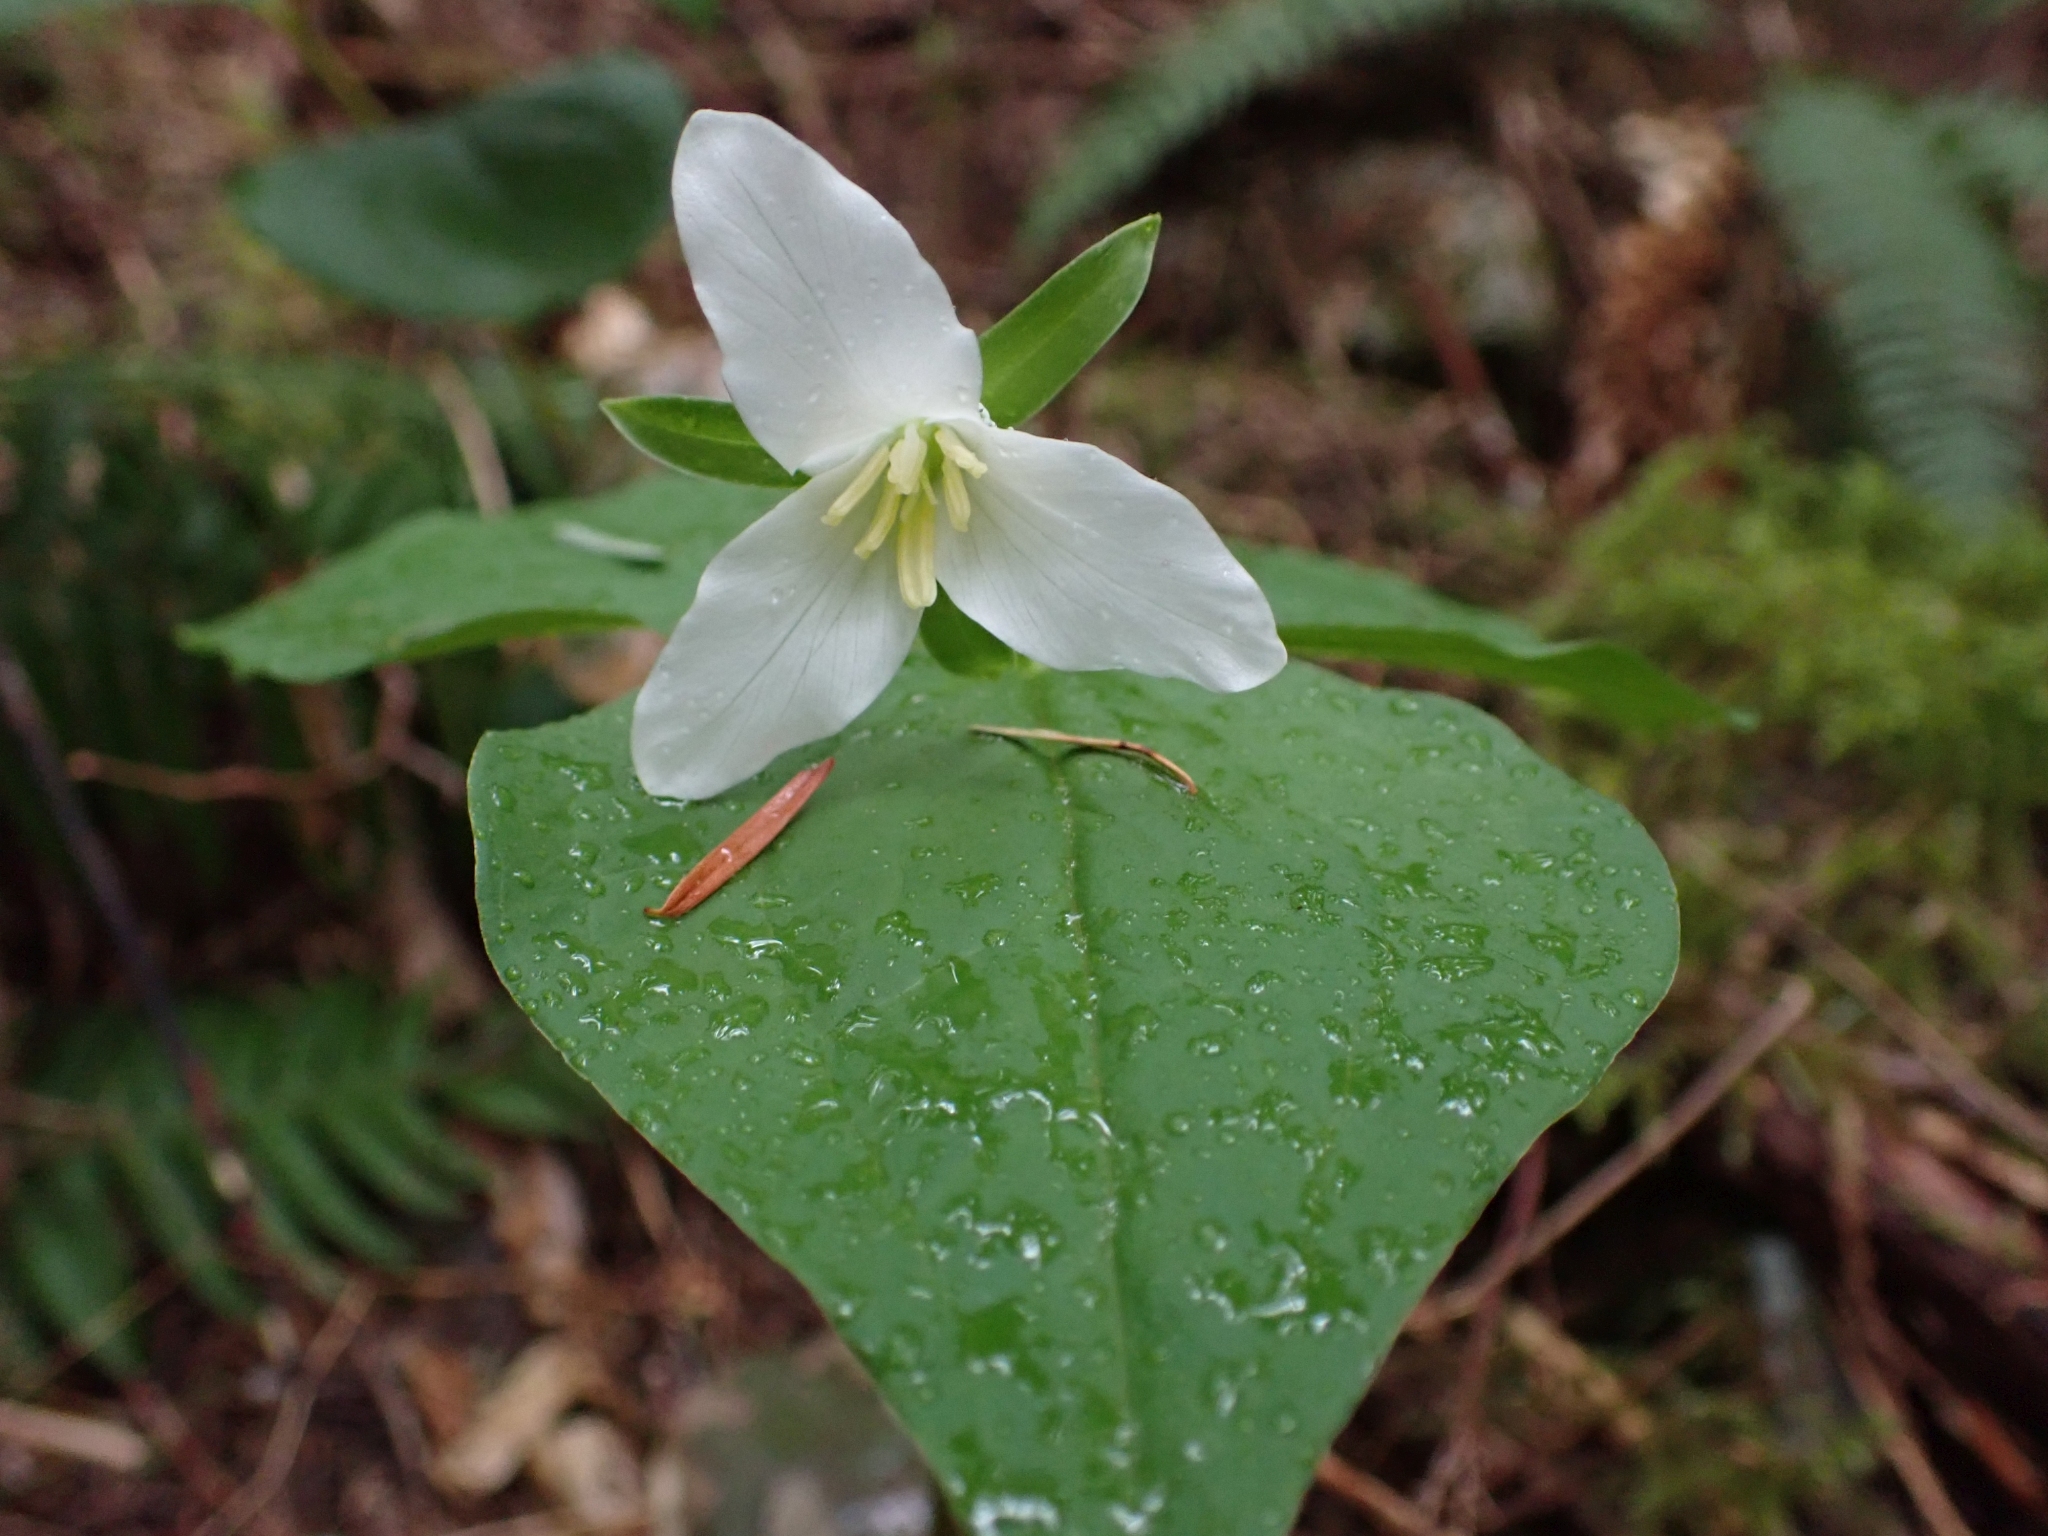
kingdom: Plantae
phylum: Tracheophyta
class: Liliopsida
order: Liliales
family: Melanthiaceae
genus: Trillium
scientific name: Trillium ovatum
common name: Pacific trillium
